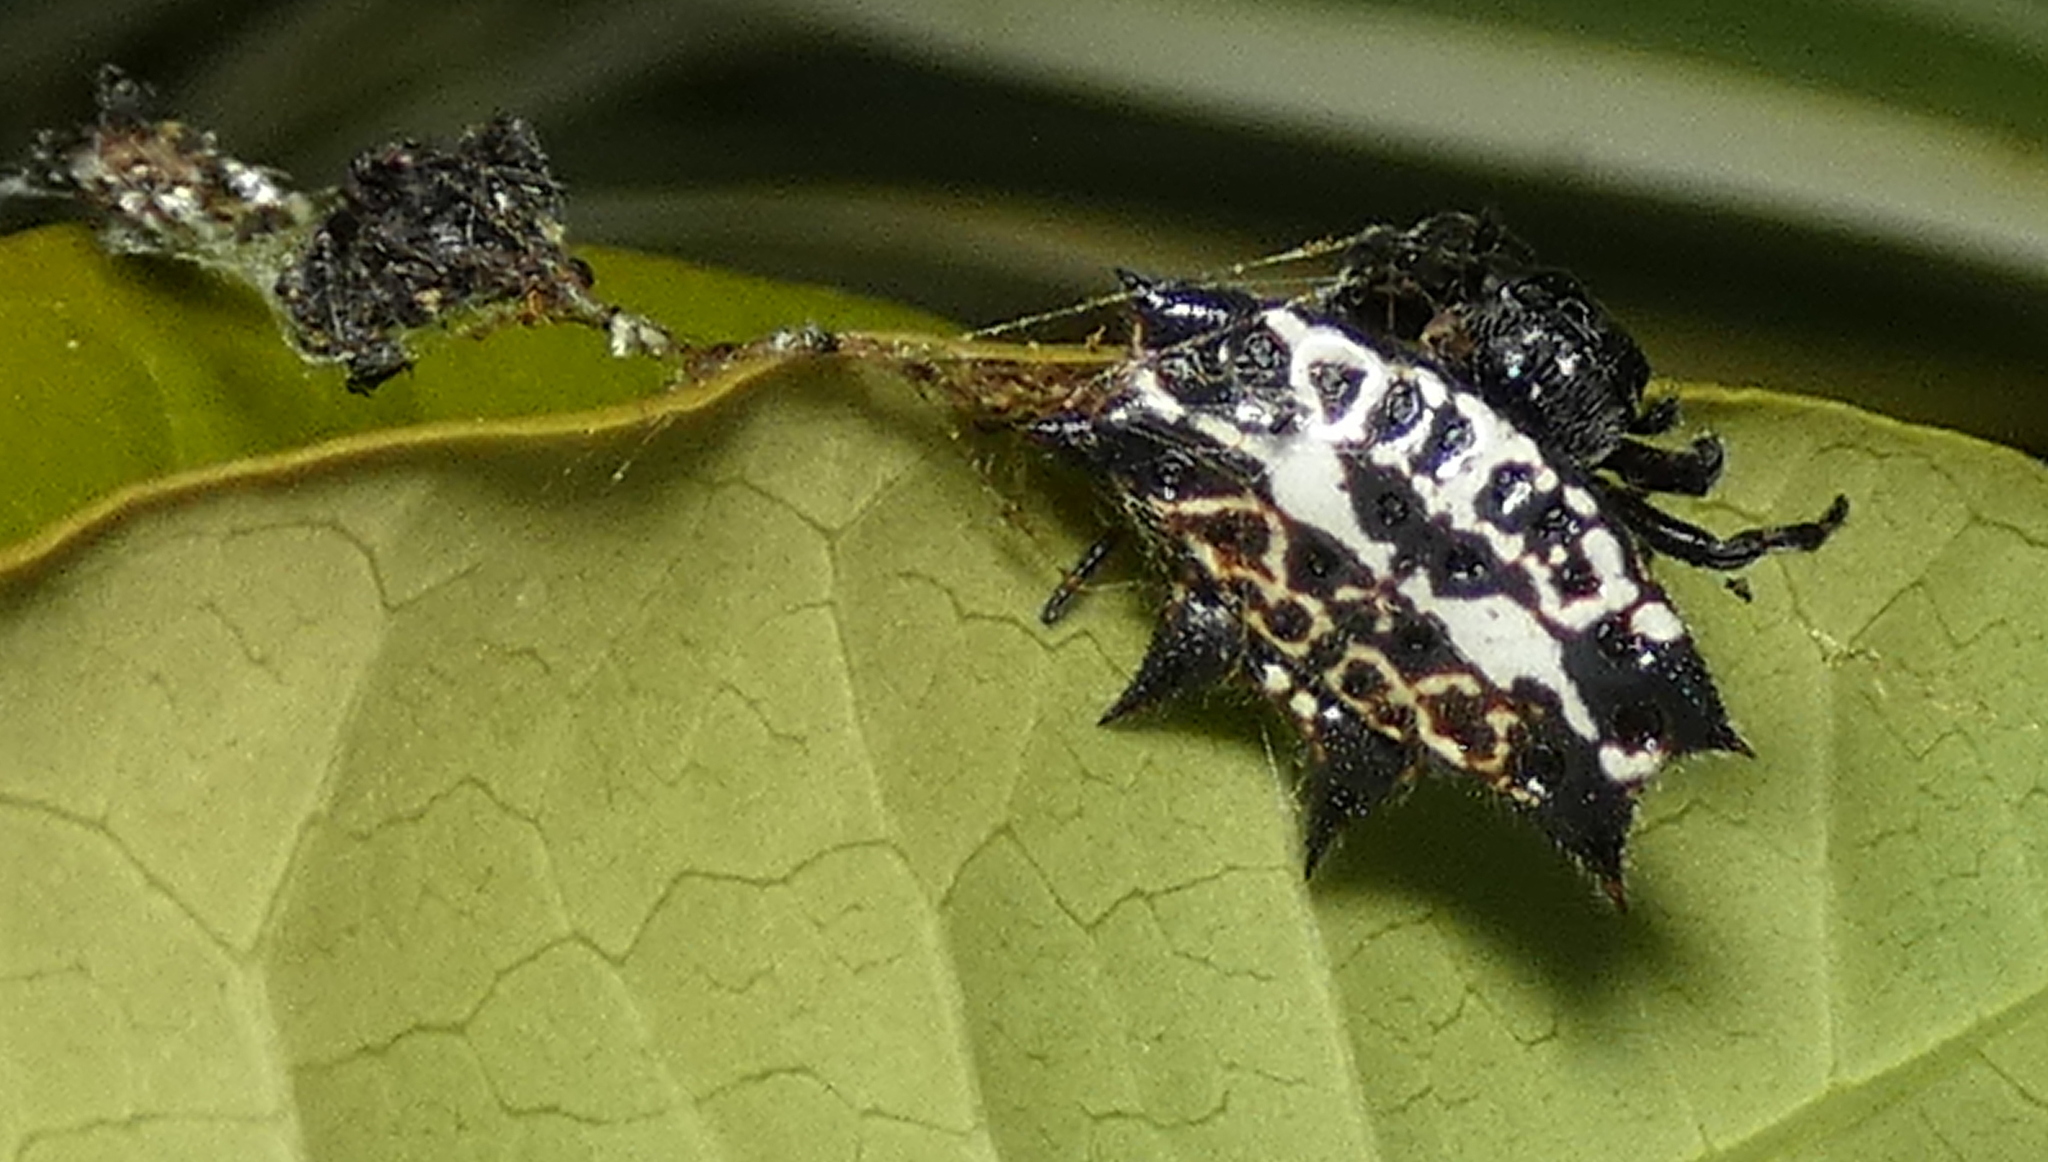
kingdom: Animalia
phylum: Arthropoda
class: Arachnida
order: Araneae
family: Araneidae
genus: Gasteracantha
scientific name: Gasteracantha cancriformis
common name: Orb weavers
